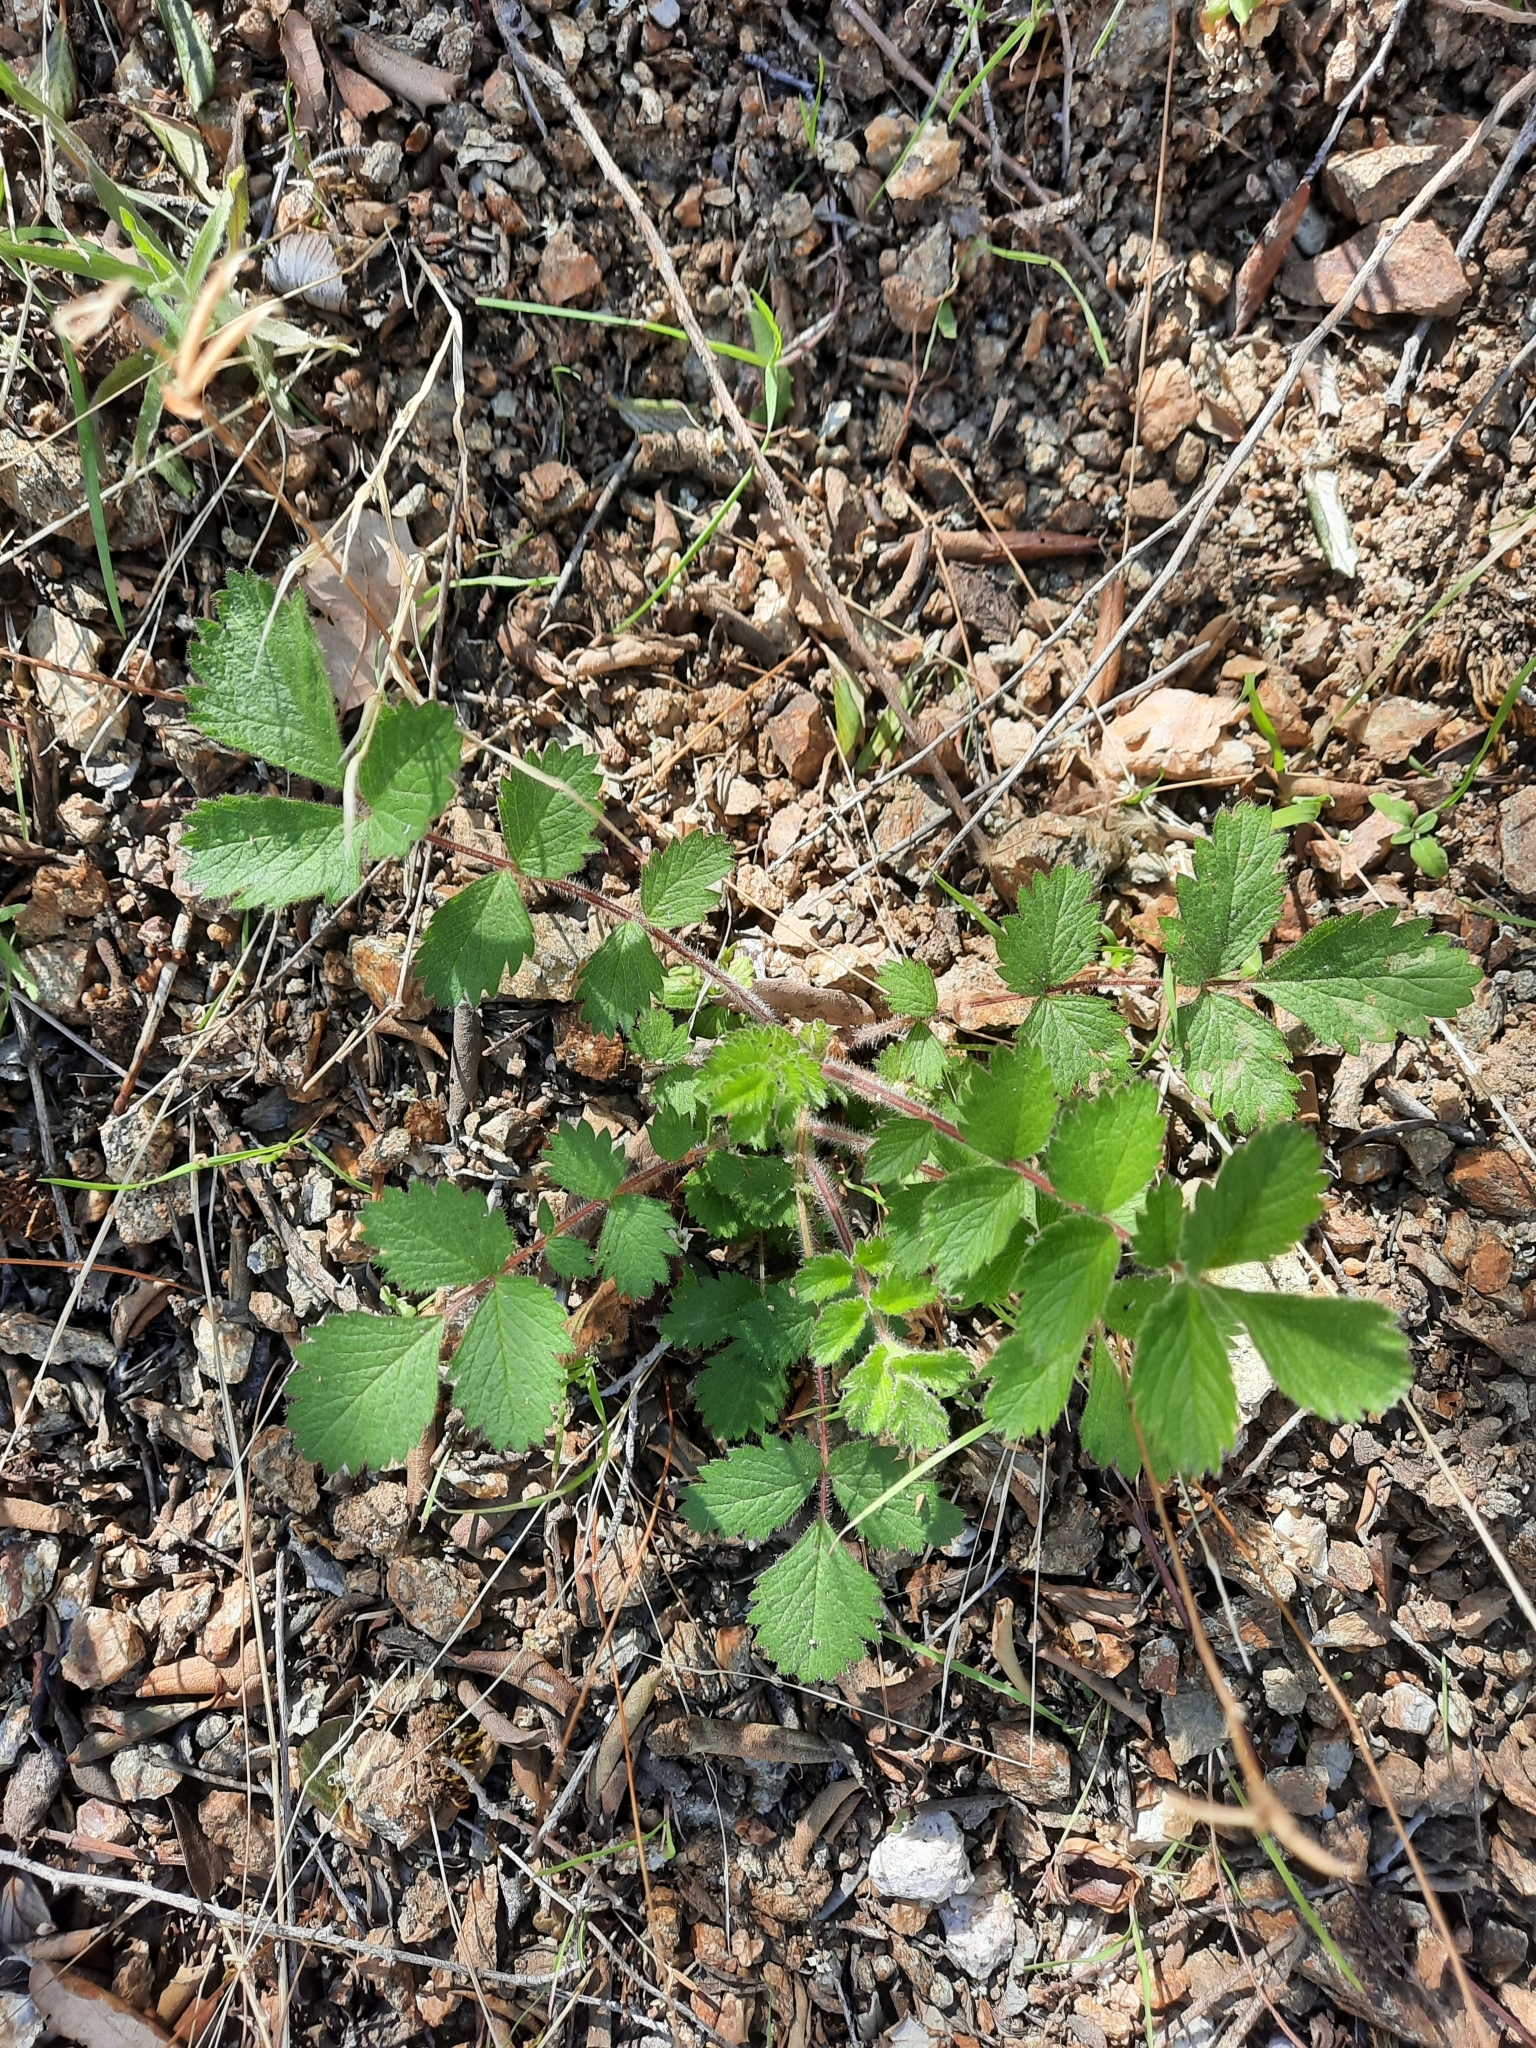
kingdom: Plantae
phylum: Tracheophyta
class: Magnoliopsida
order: Rosales
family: Rosaceae
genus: Drymocallis
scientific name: Drymocallis glandulosa
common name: Sticky cinquefoil
